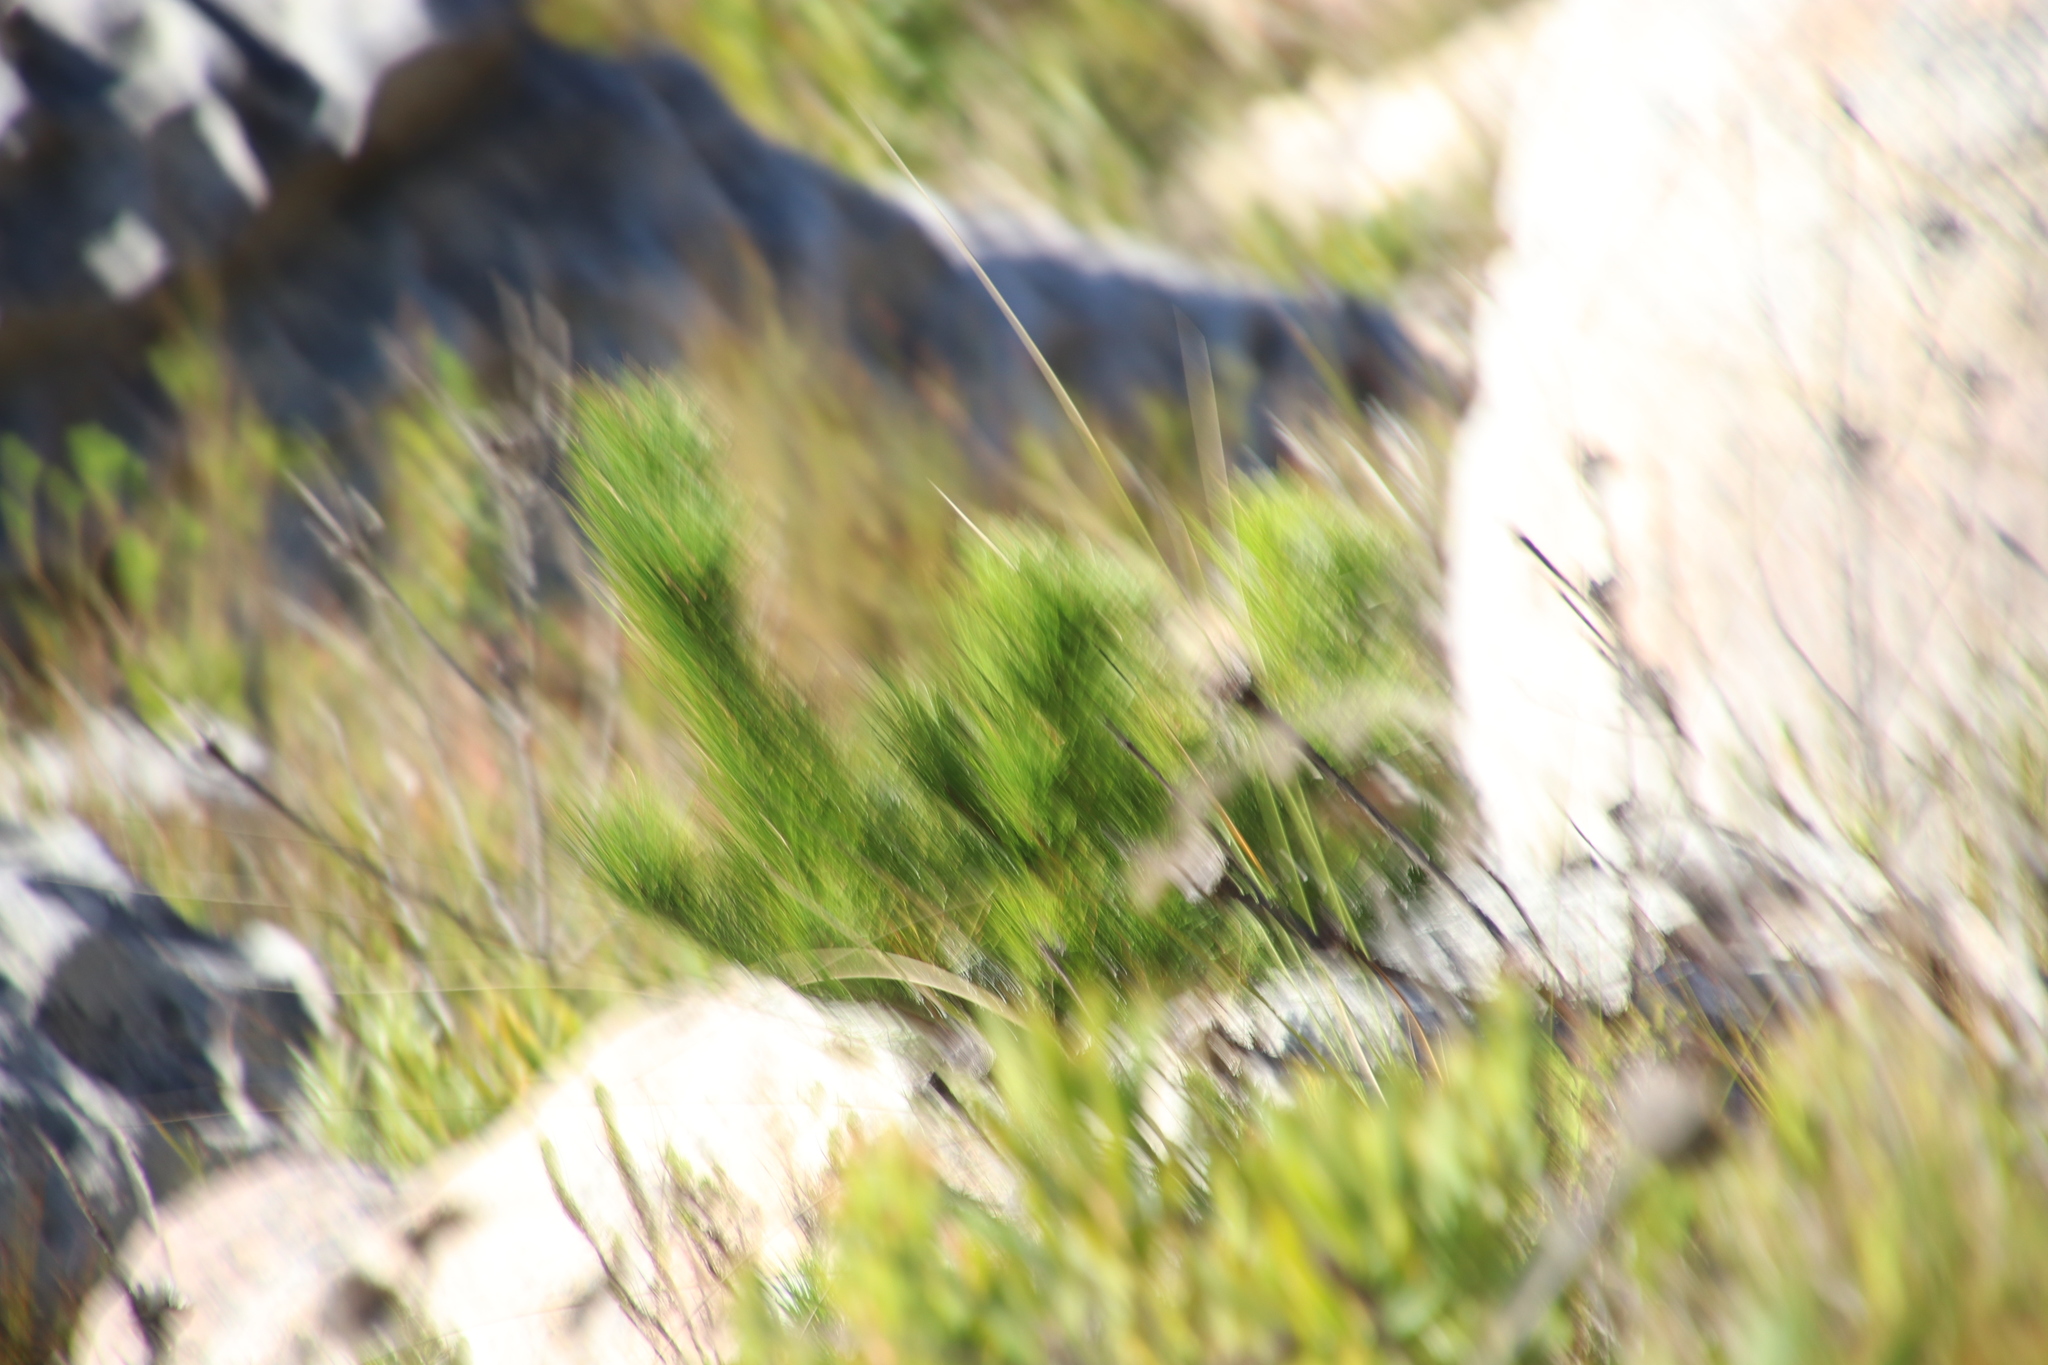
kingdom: Plantae
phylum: Tracheophyta
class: Pinopsida
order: Pinales
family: Pinaceae
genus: Pinus
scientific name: Pinus radiata
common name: Monterey pine
